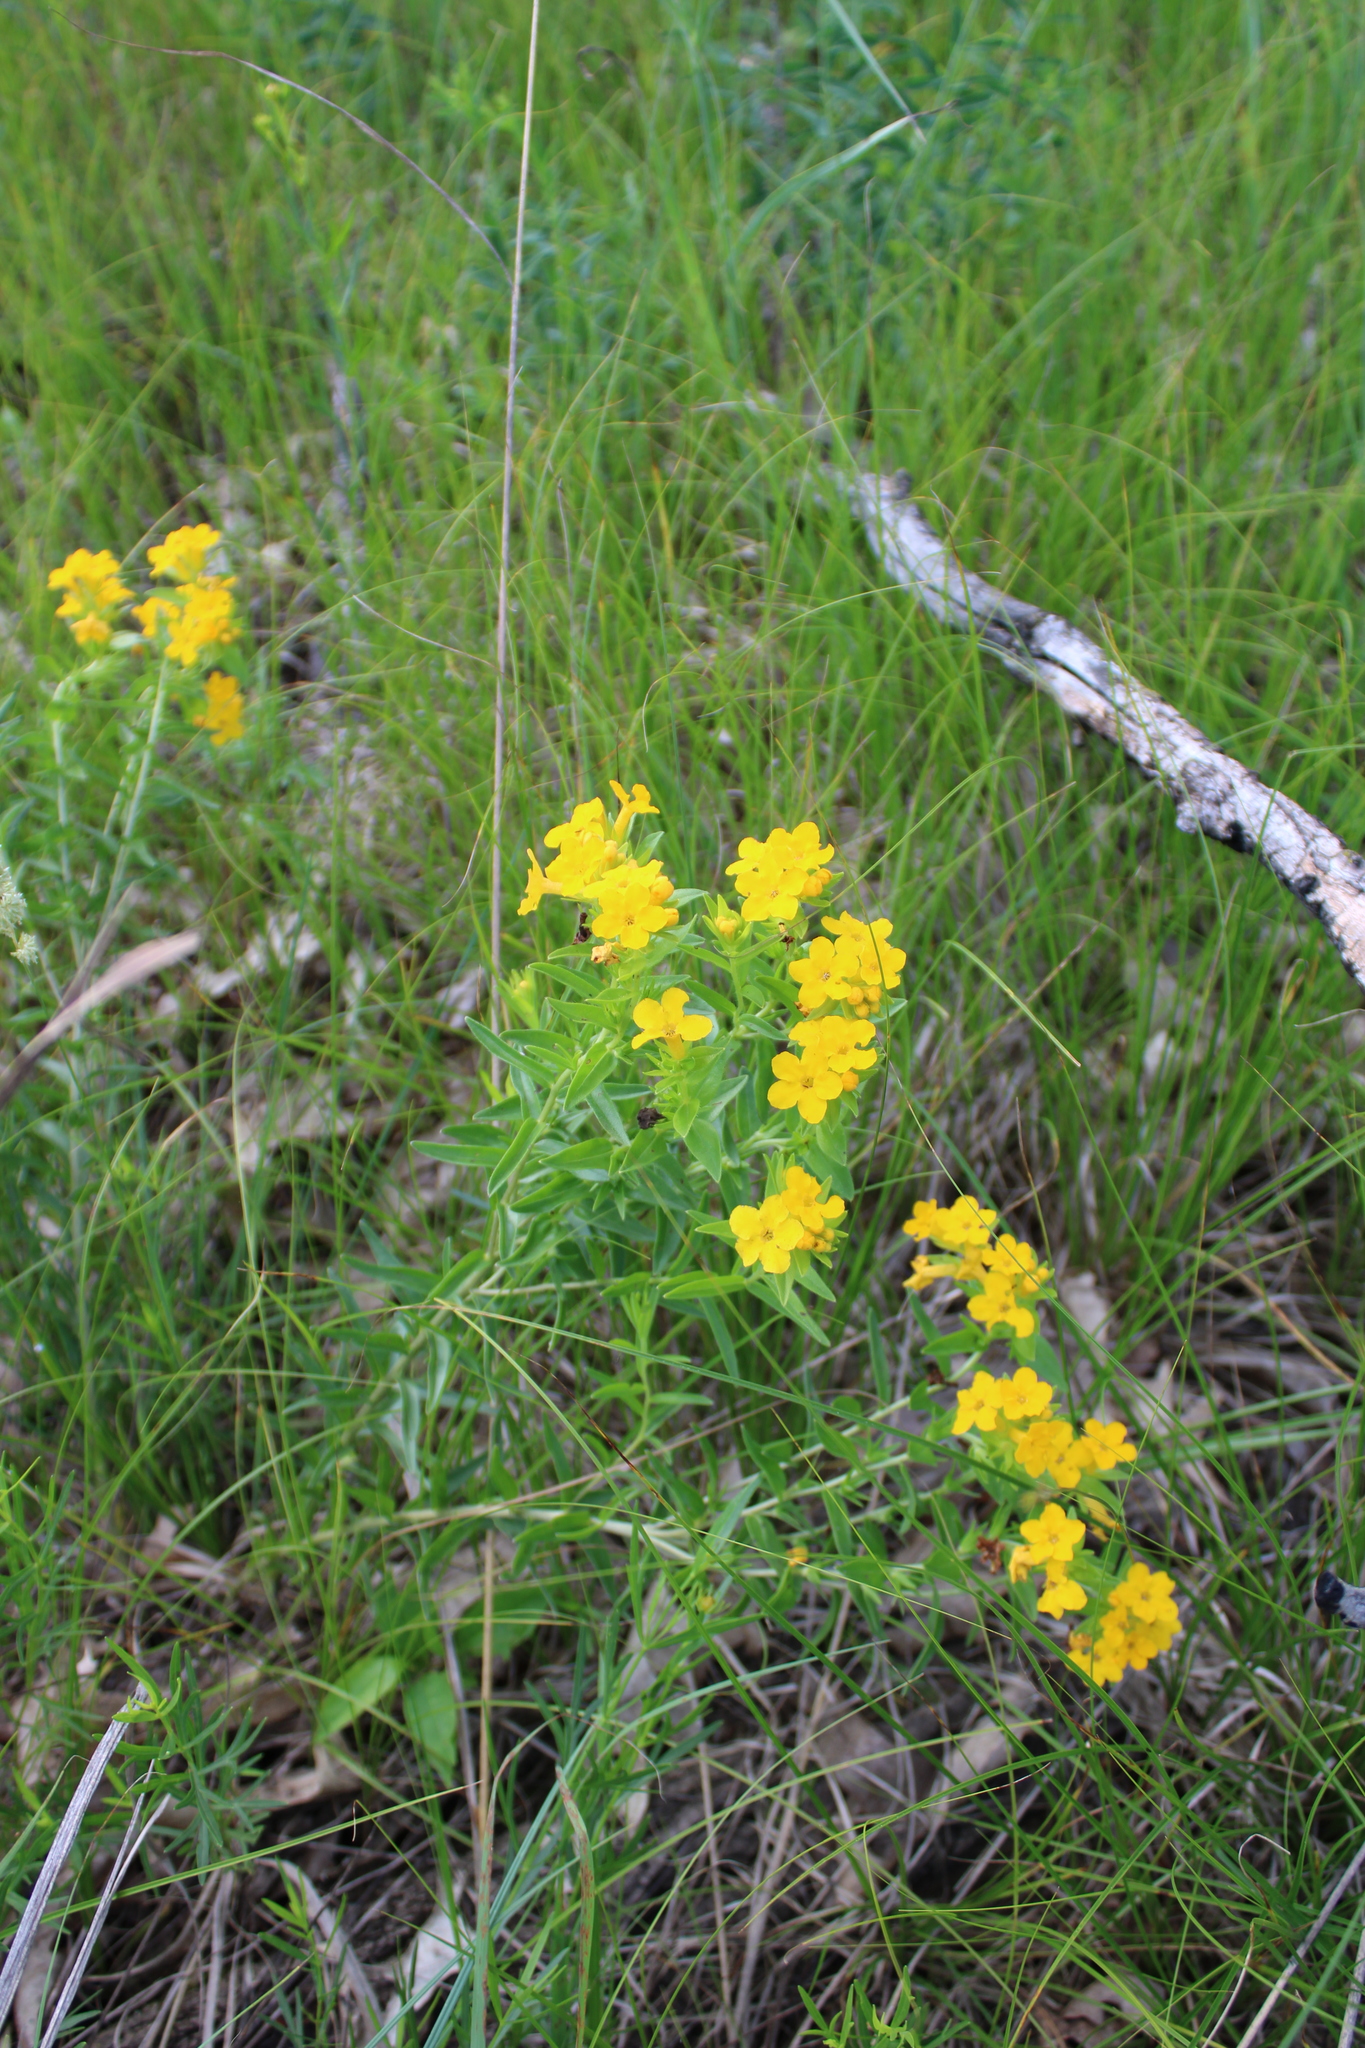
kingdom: Plantae
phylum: Tracheophyta
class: Magnoliopsida
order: Boraginales
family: Boraginaceae
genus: Lithospermum
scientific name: Lithospermum caroliniense
